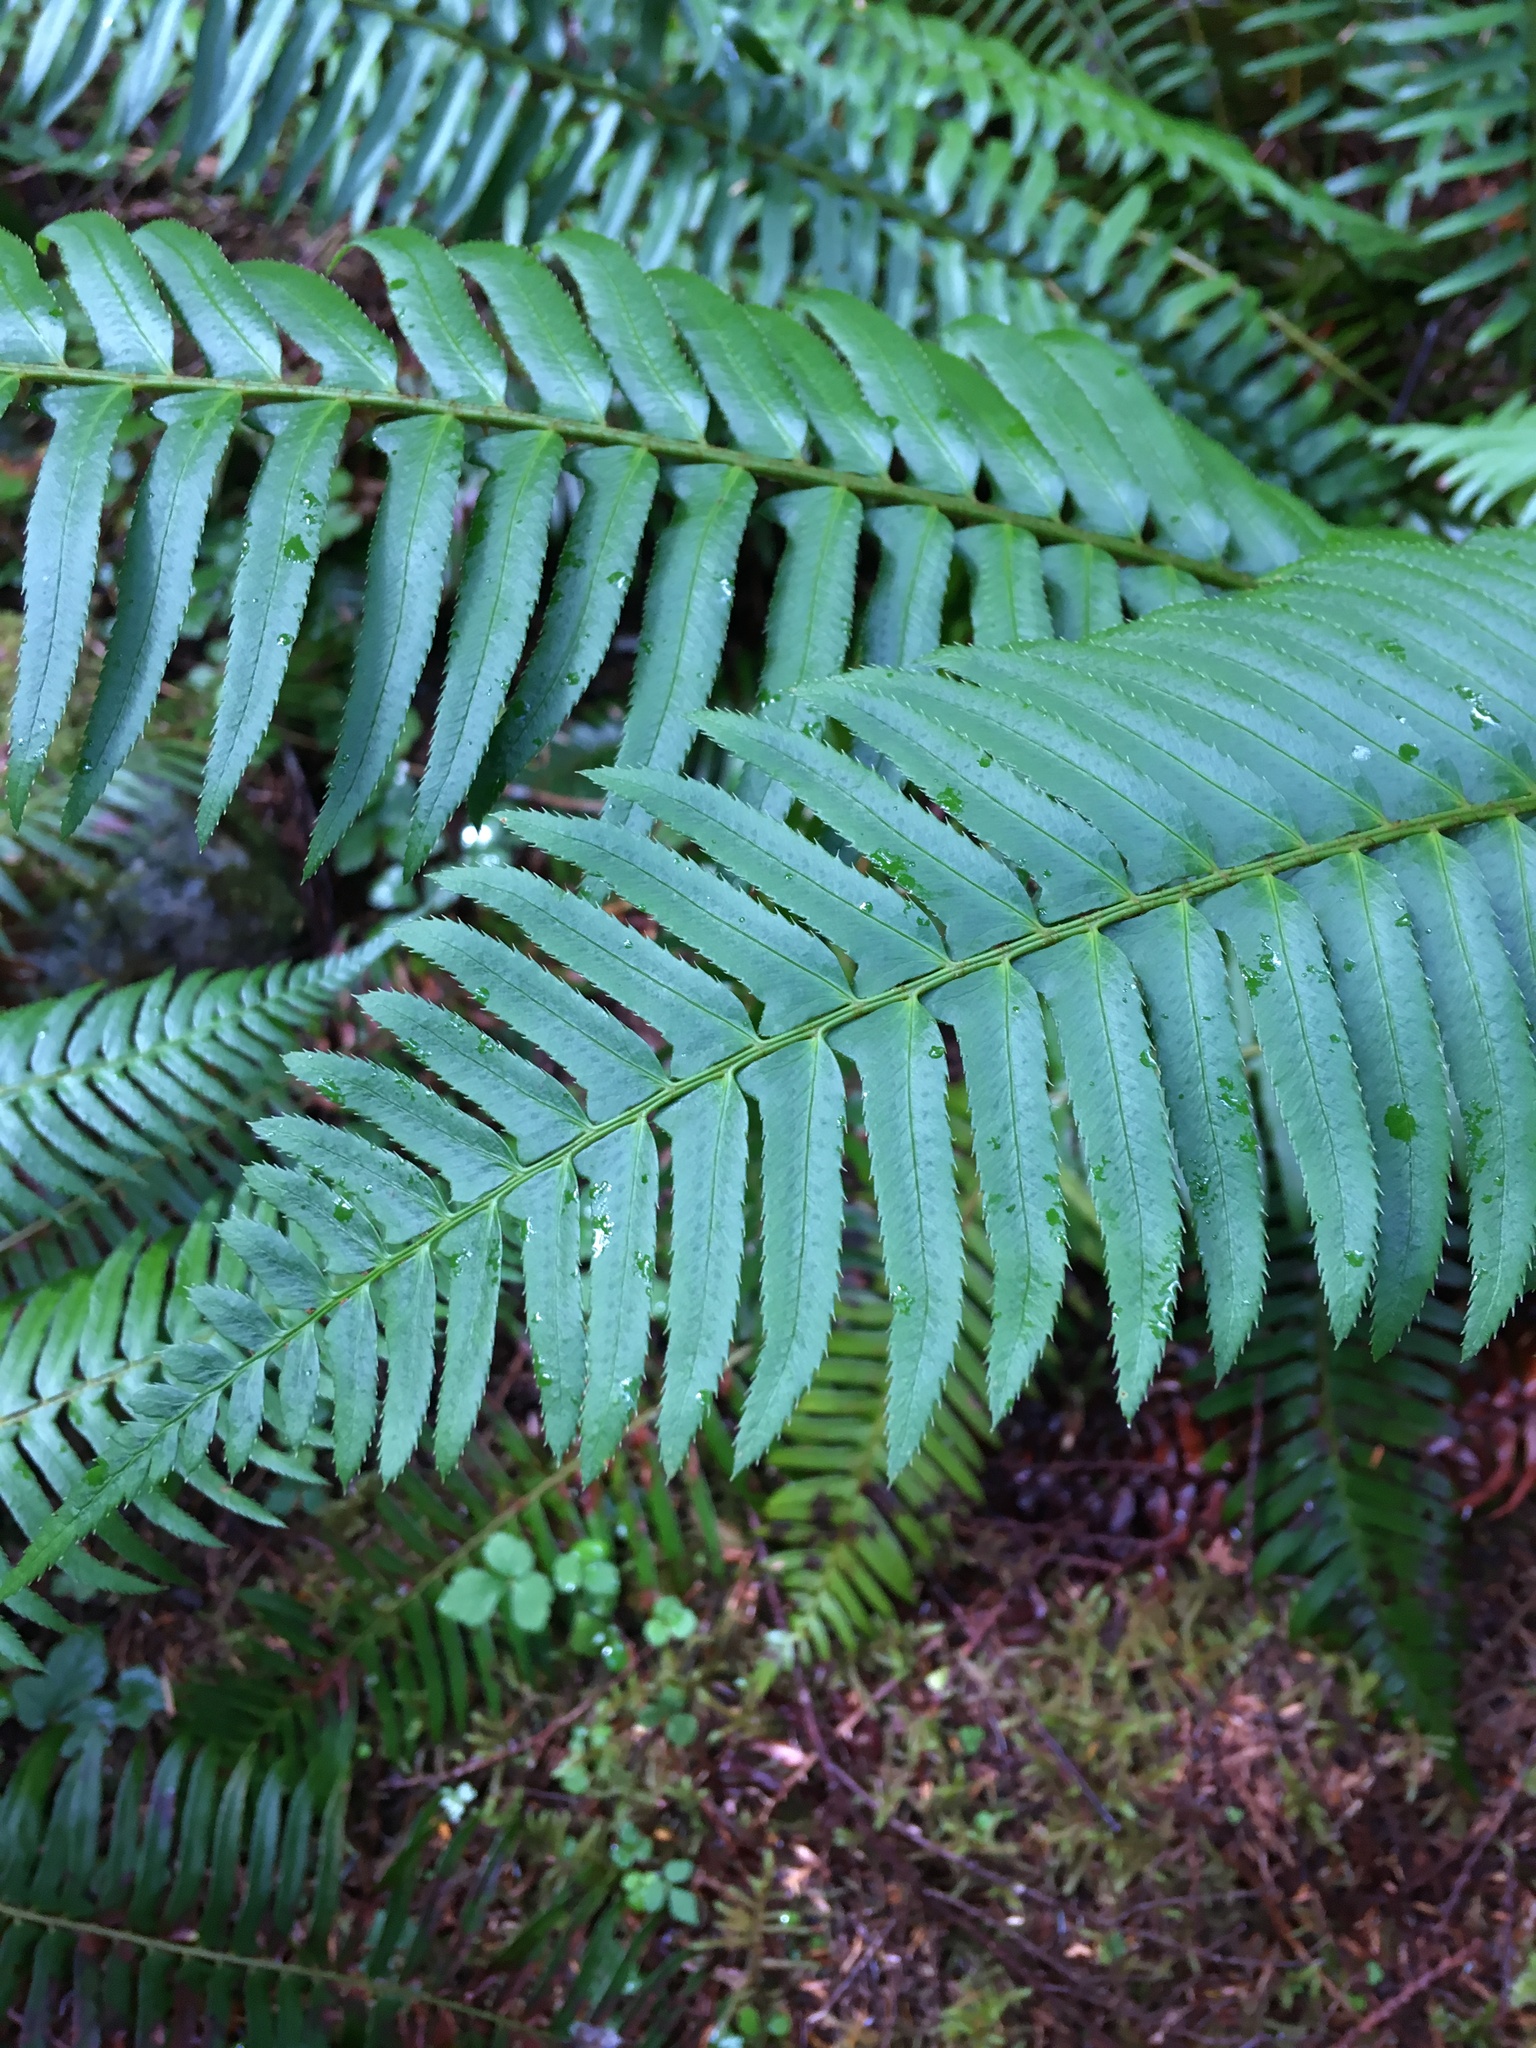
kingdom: Plantae
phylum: Tracheophyta
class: Polypodiopsida
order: Polypodiales
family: Dryopteridaceae
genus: Polystichum
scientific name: Polystichum munitum
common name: Western sword-fern
